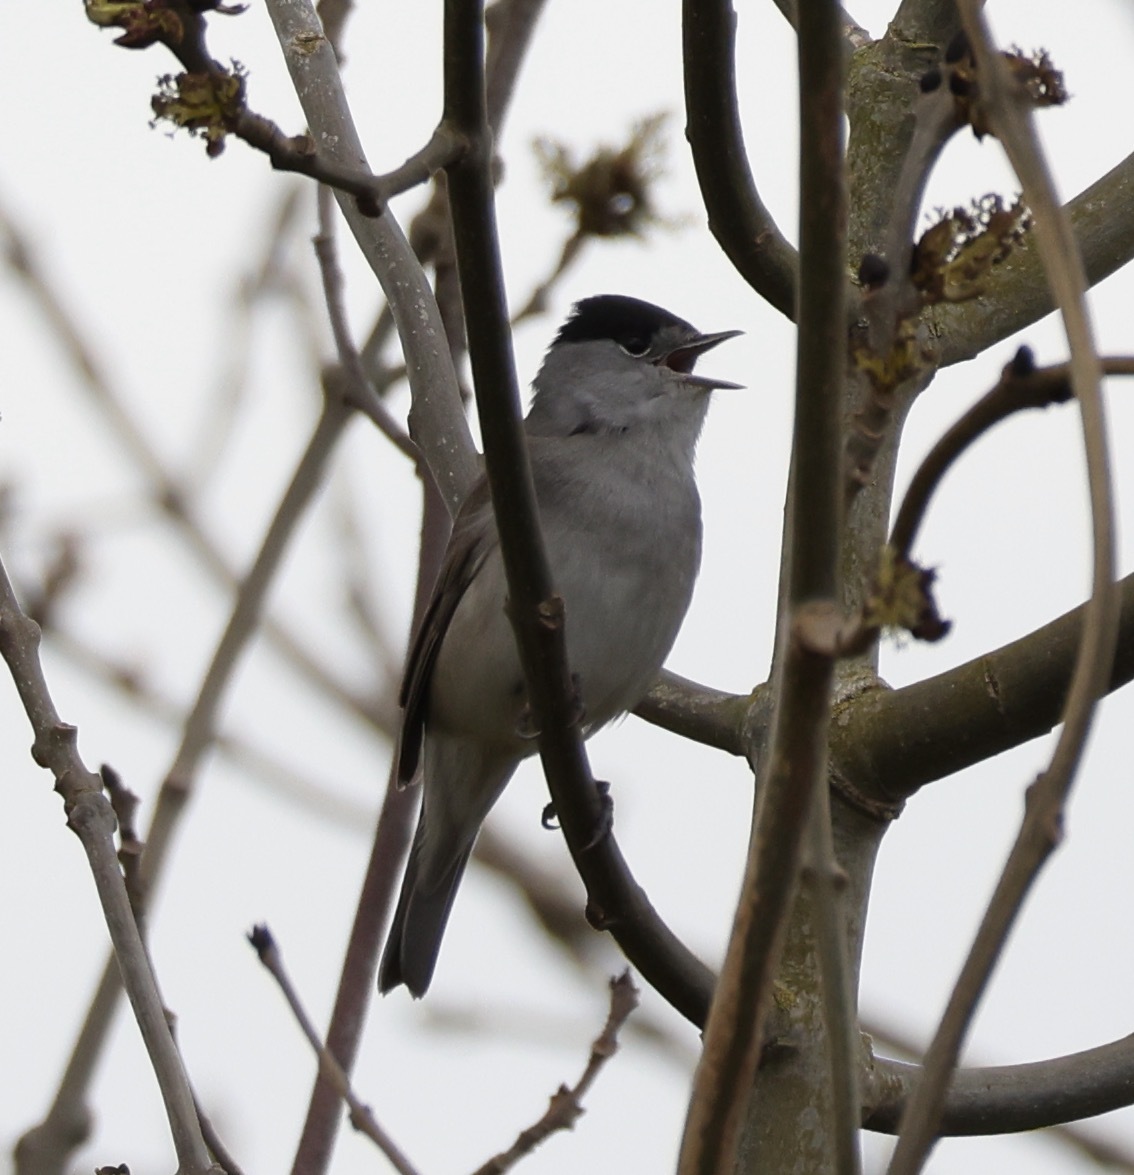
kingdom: Animalia
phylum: Chordata
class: Aves
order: Passeriformes
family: Sylviidae
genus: Sylvia
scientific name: Sylvia atricapilla
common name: Eurasian blackcap
